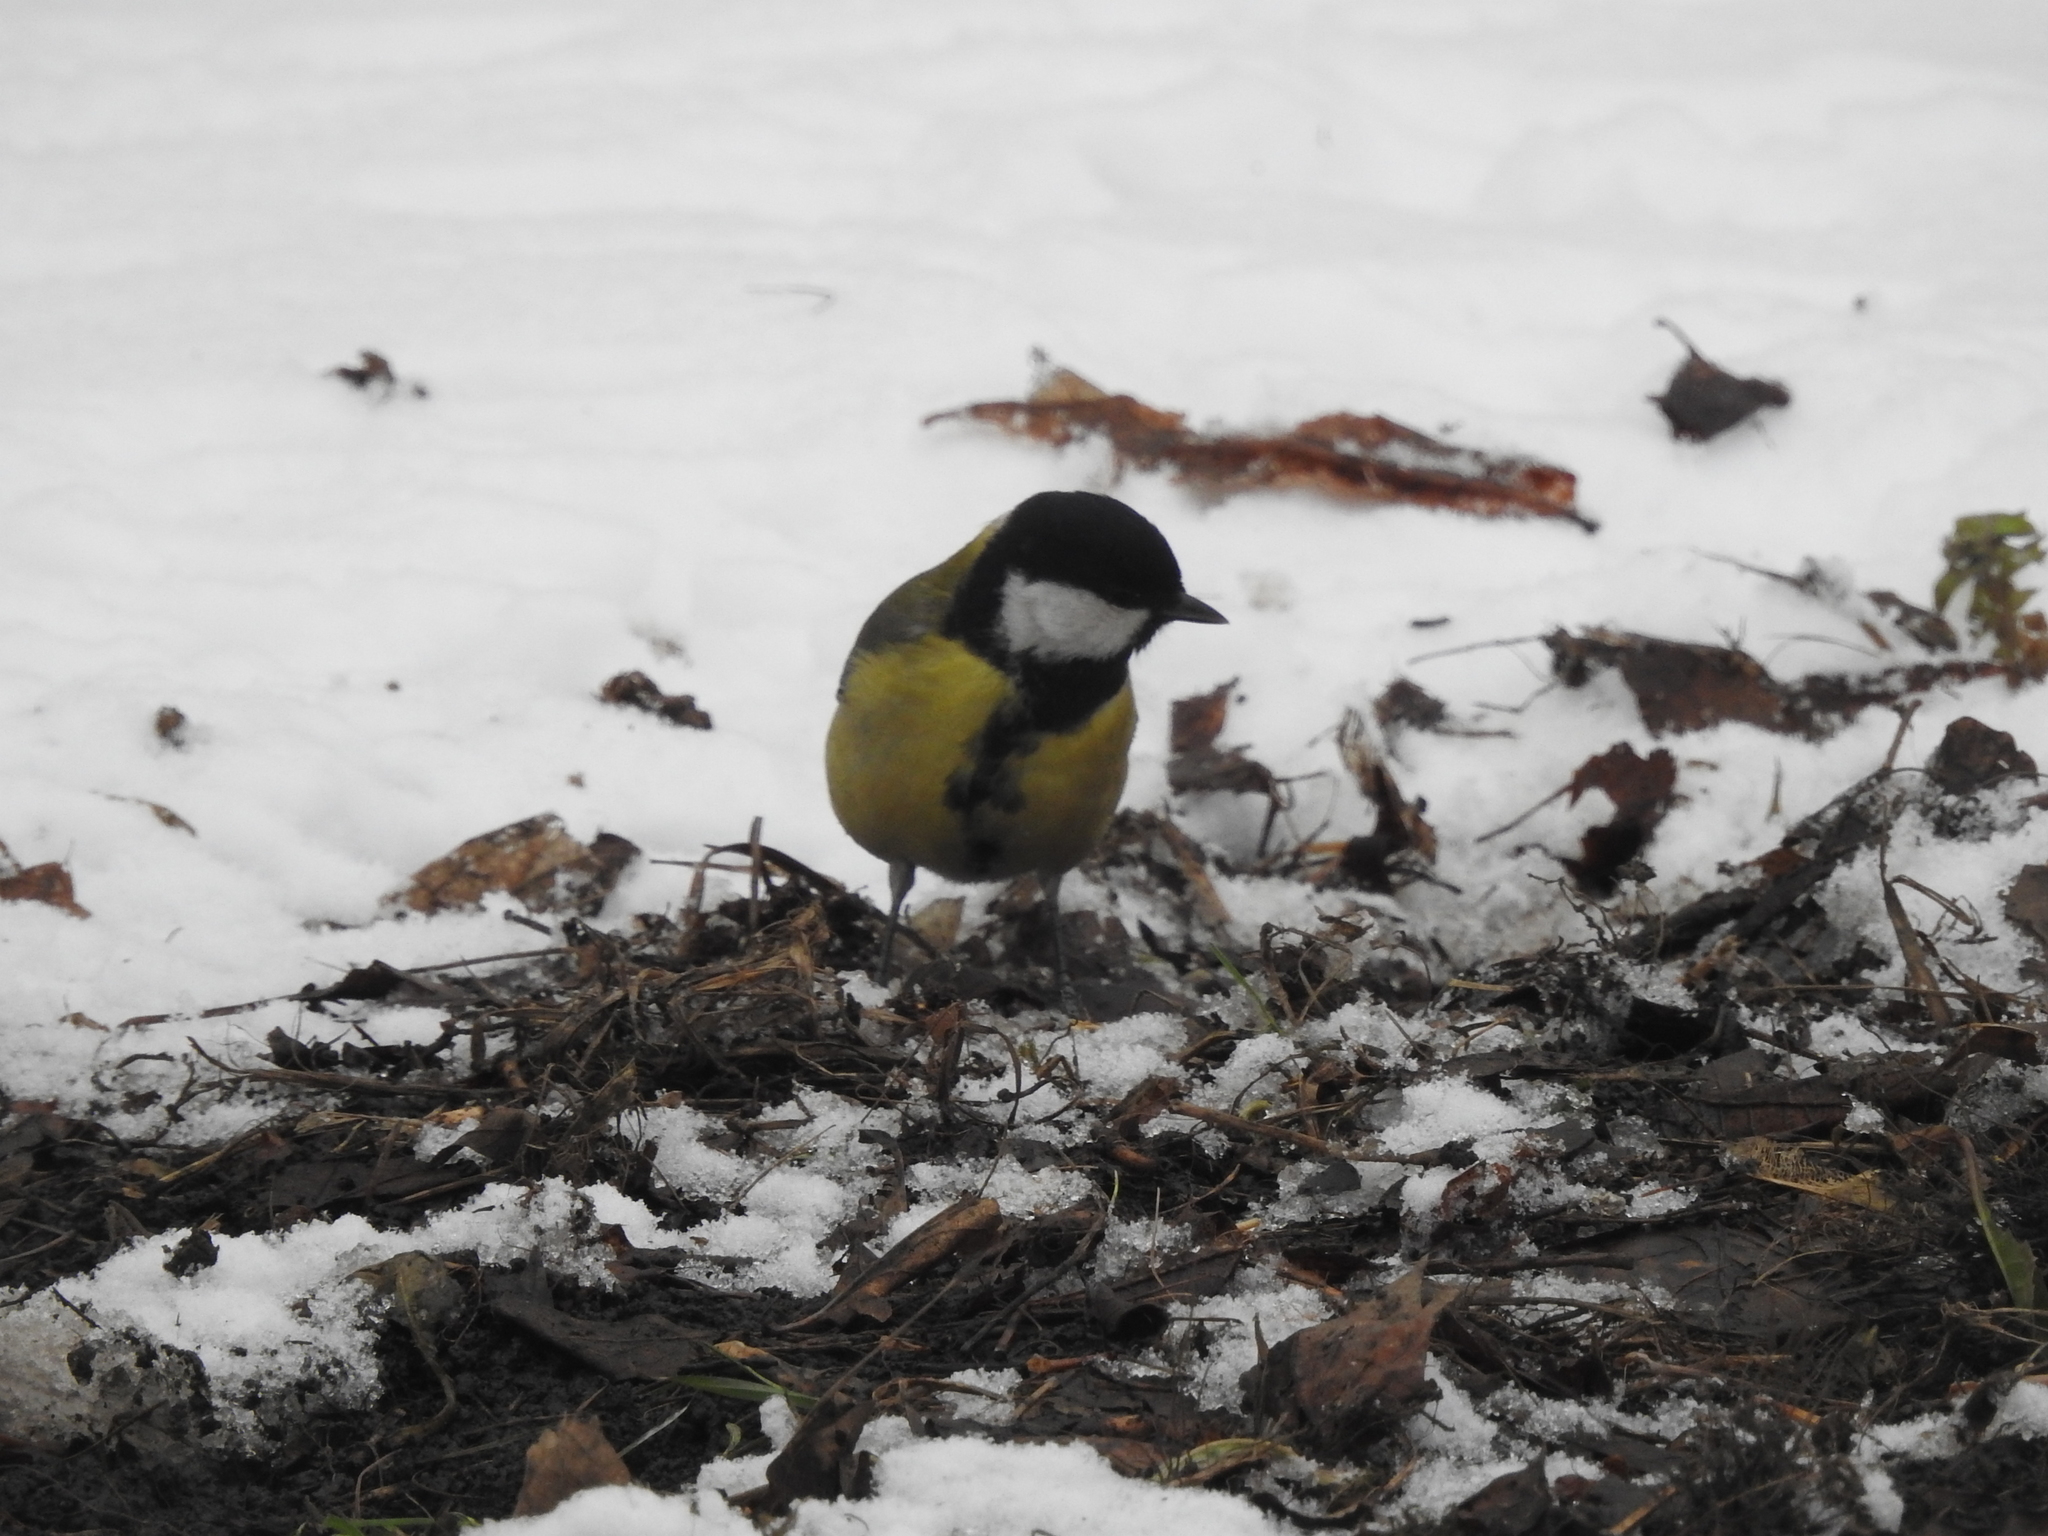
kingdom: Animalia
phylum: Chordata
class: Aves
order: Passeriformes
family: Paridae
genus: Parus
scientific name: Parus major
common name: Great tit
